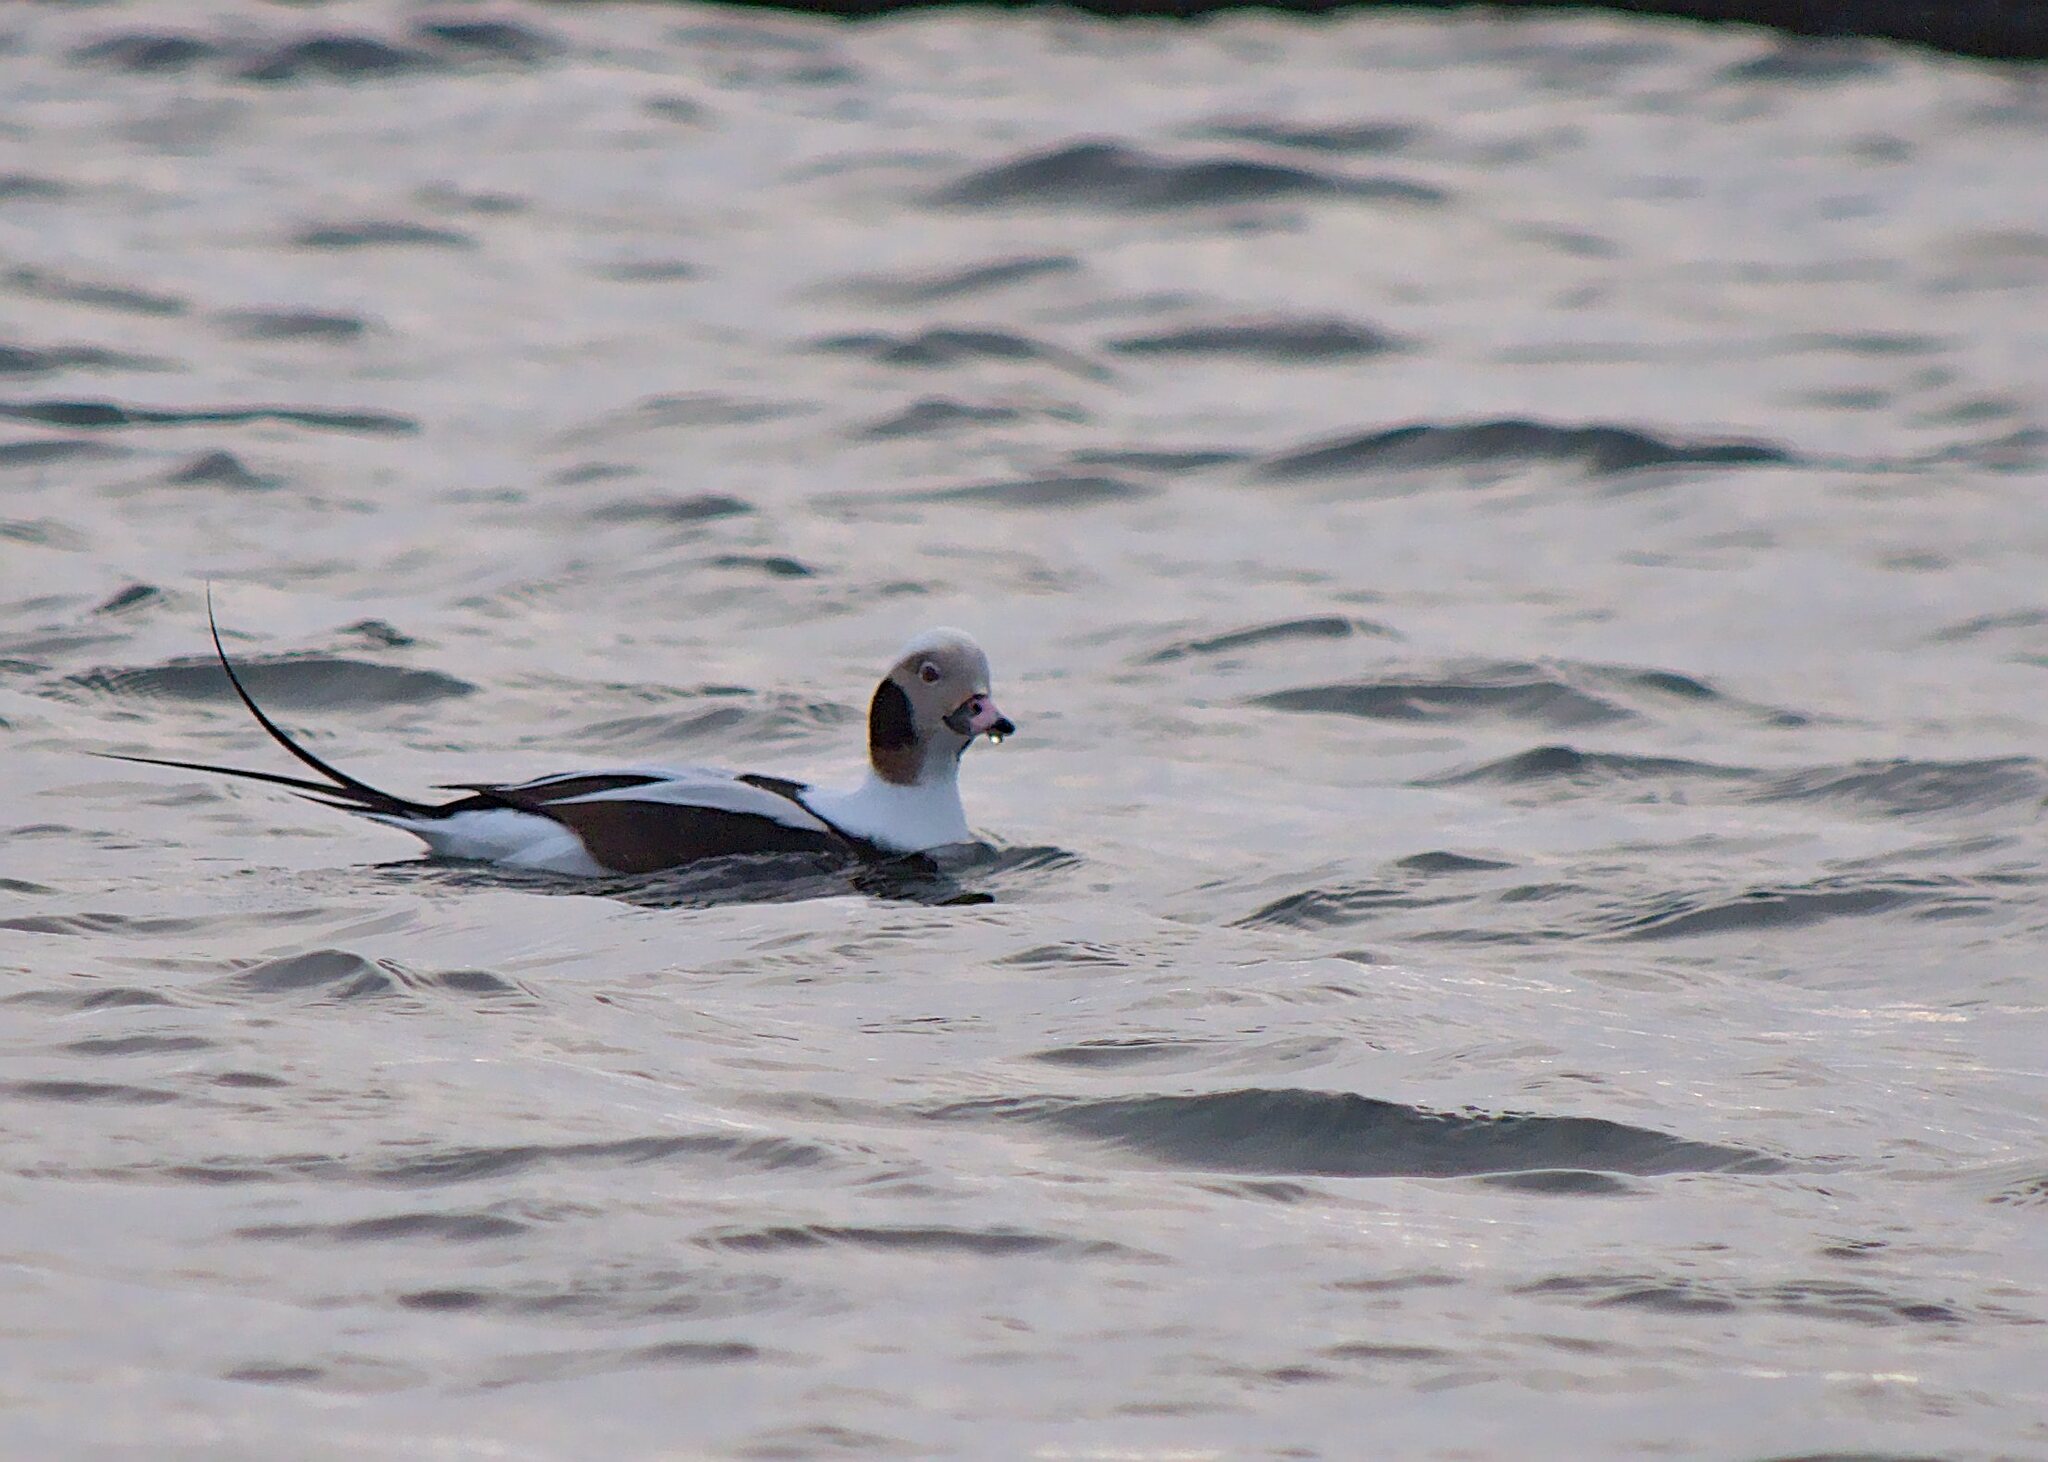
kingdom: Animalia
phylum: Chordata
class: Aves
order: Anseriformes
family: Anatidae
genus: Clangula
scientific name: Clangula hyemalis
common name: Long-tailed duck
